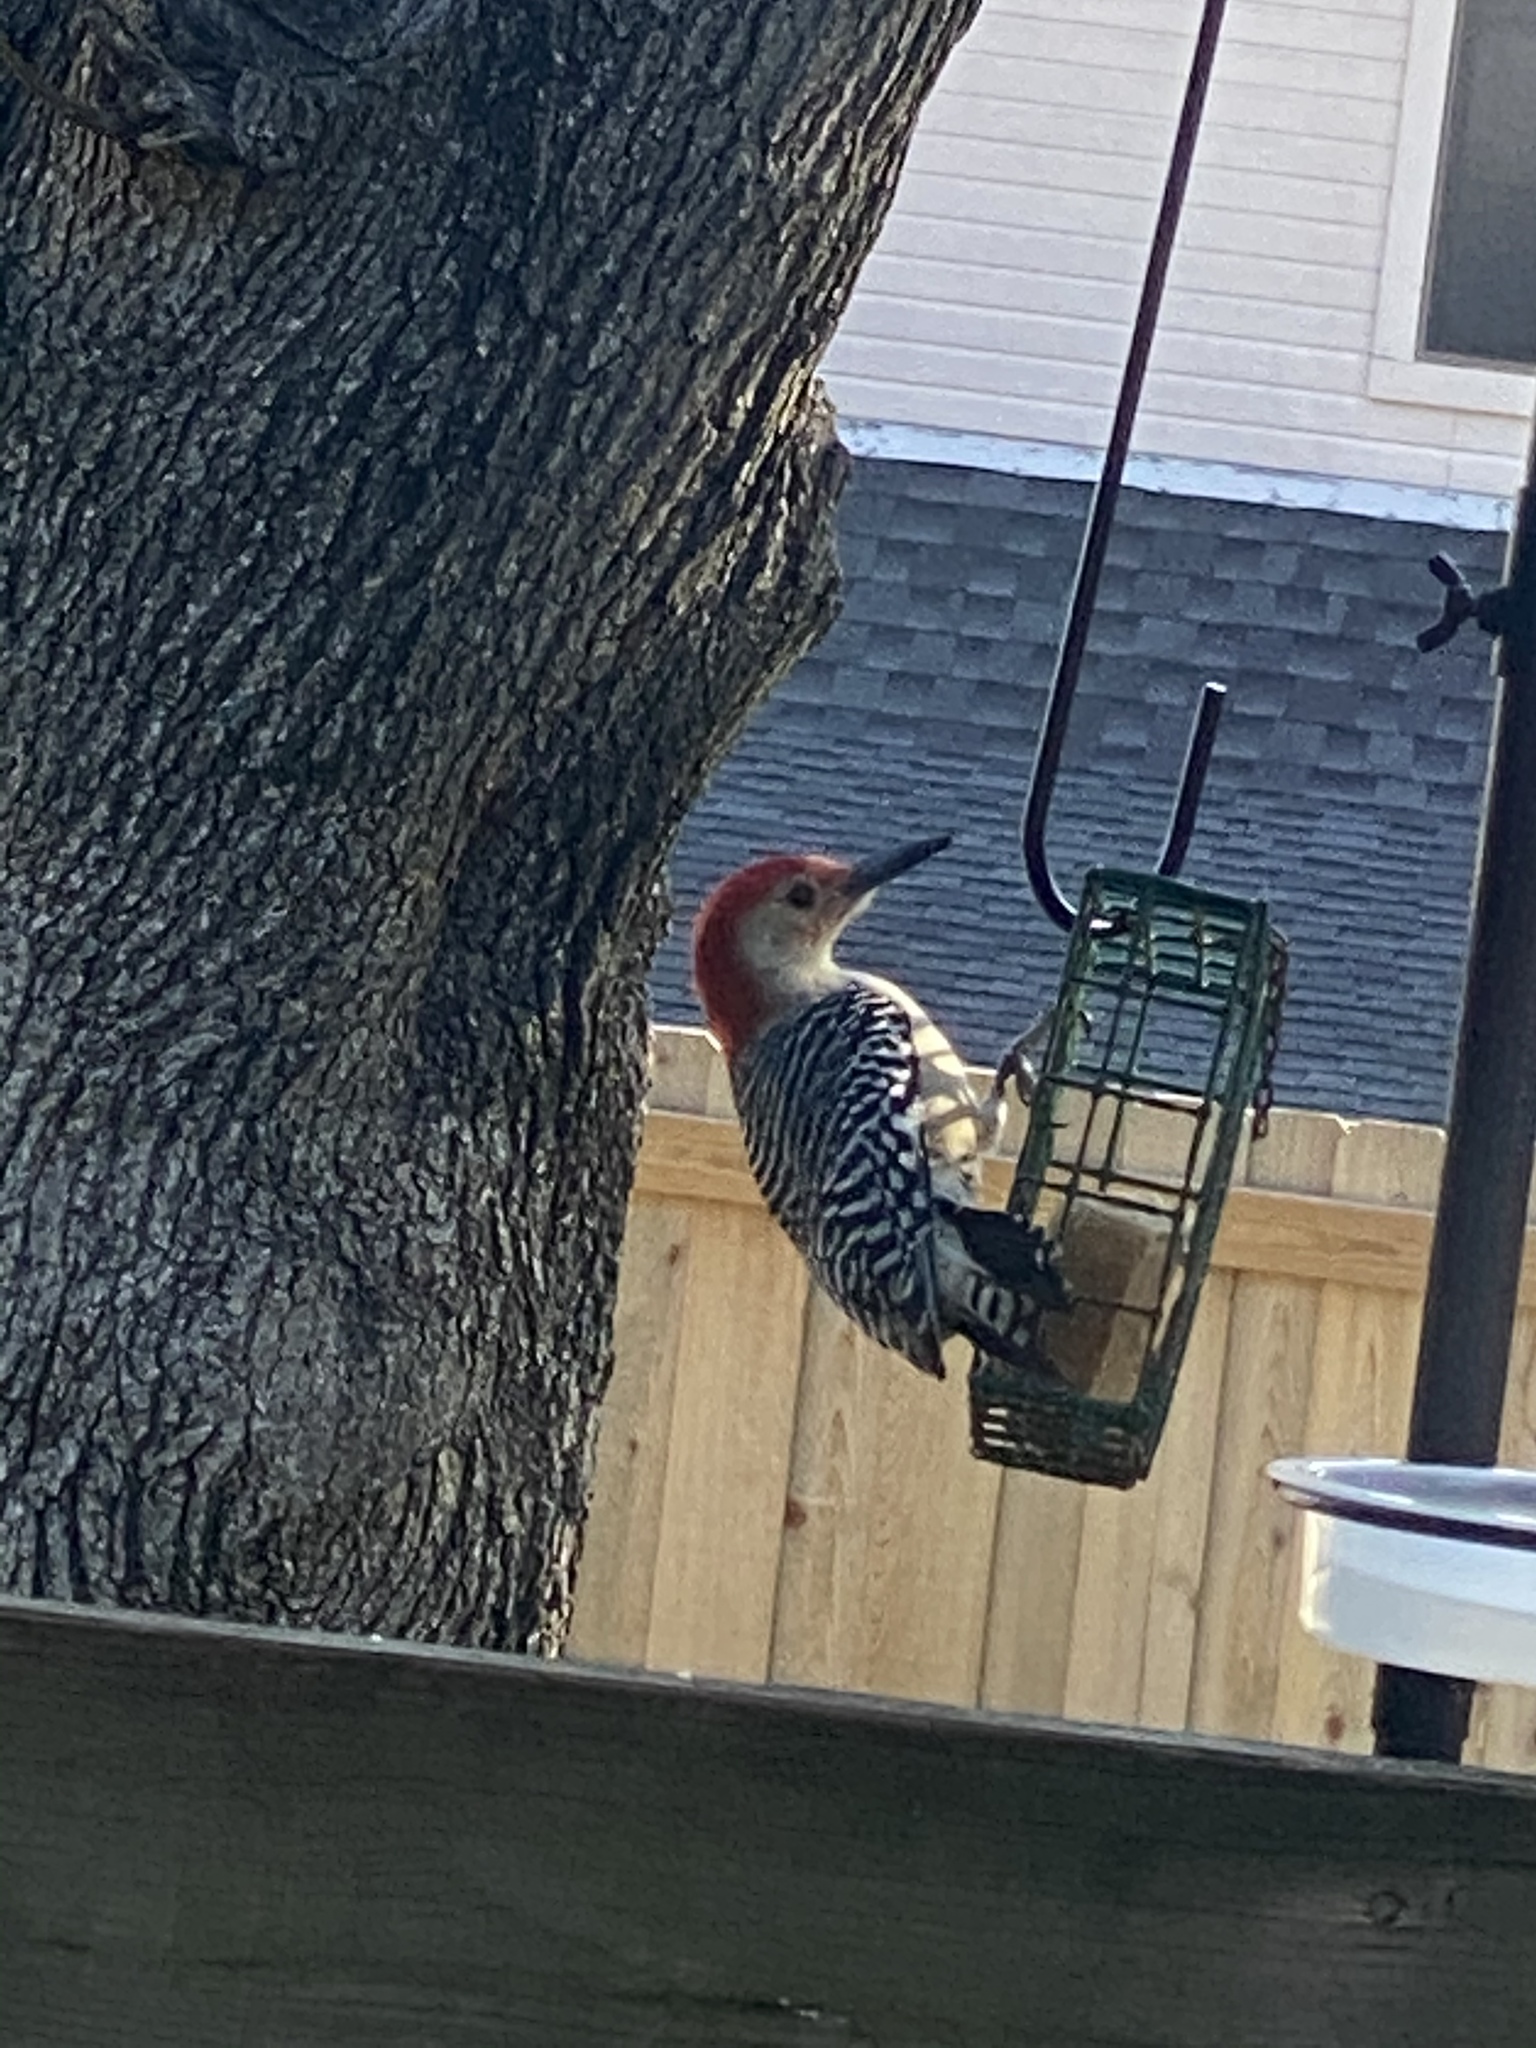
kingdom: Animalia
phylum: Chordata
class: Aves
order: Piciformes
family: Picidae
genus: Melanerpes
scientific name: Melanerpes carolinus
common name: Red-bellied woodpecker
